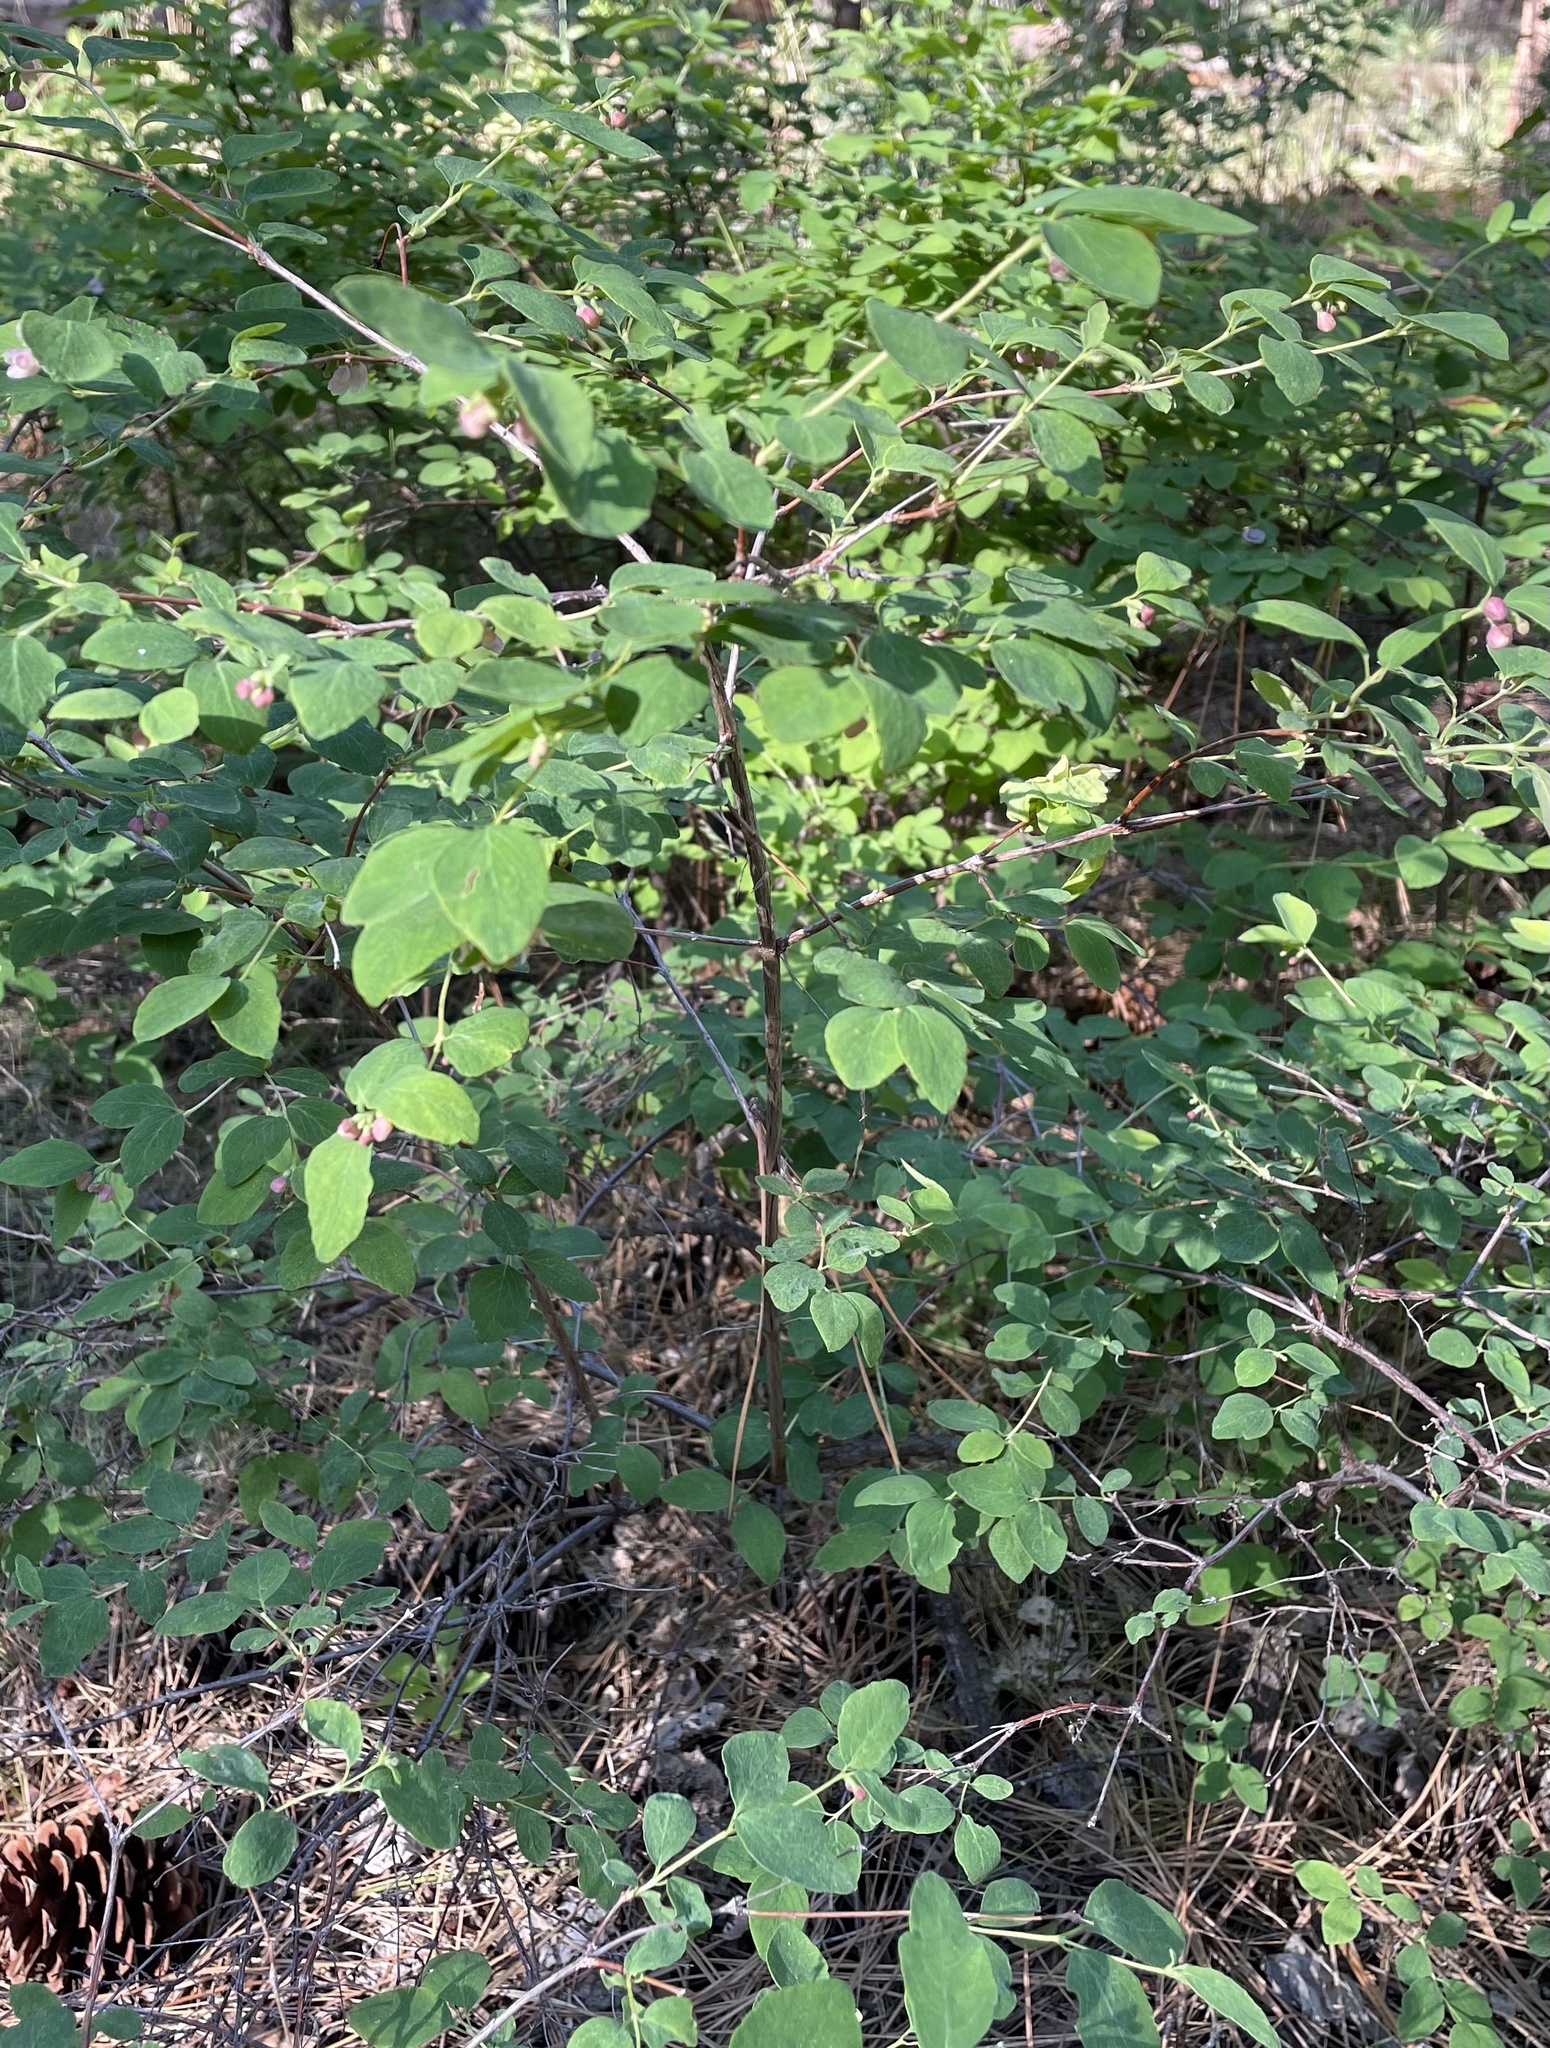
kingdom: Plantae
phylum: Tracheophyta
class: Magnoliopsida
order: Dipsacales
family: Caprifoliaceae
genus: Symphoricarpos
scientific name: Symphoricarpos albus
